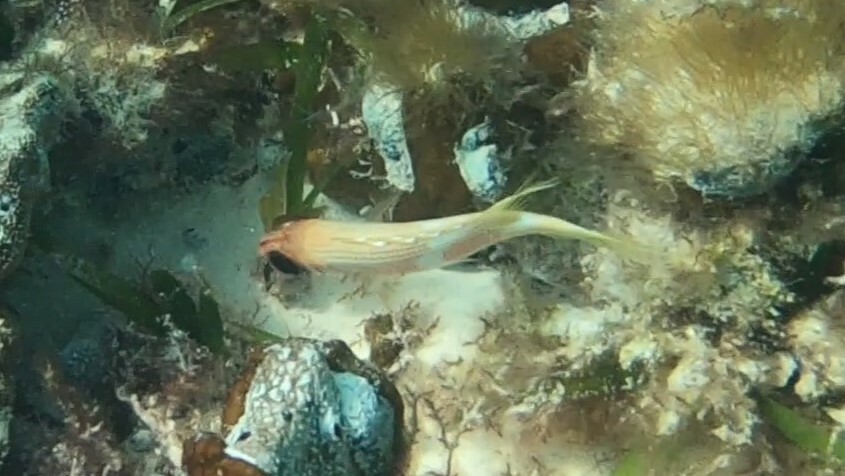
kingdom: Animalia
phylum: Chordata
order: Beryciformes
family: Holocentridae
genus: Holocentrus
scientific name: Holocentrus rufus
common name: Longspine squirrelfish
